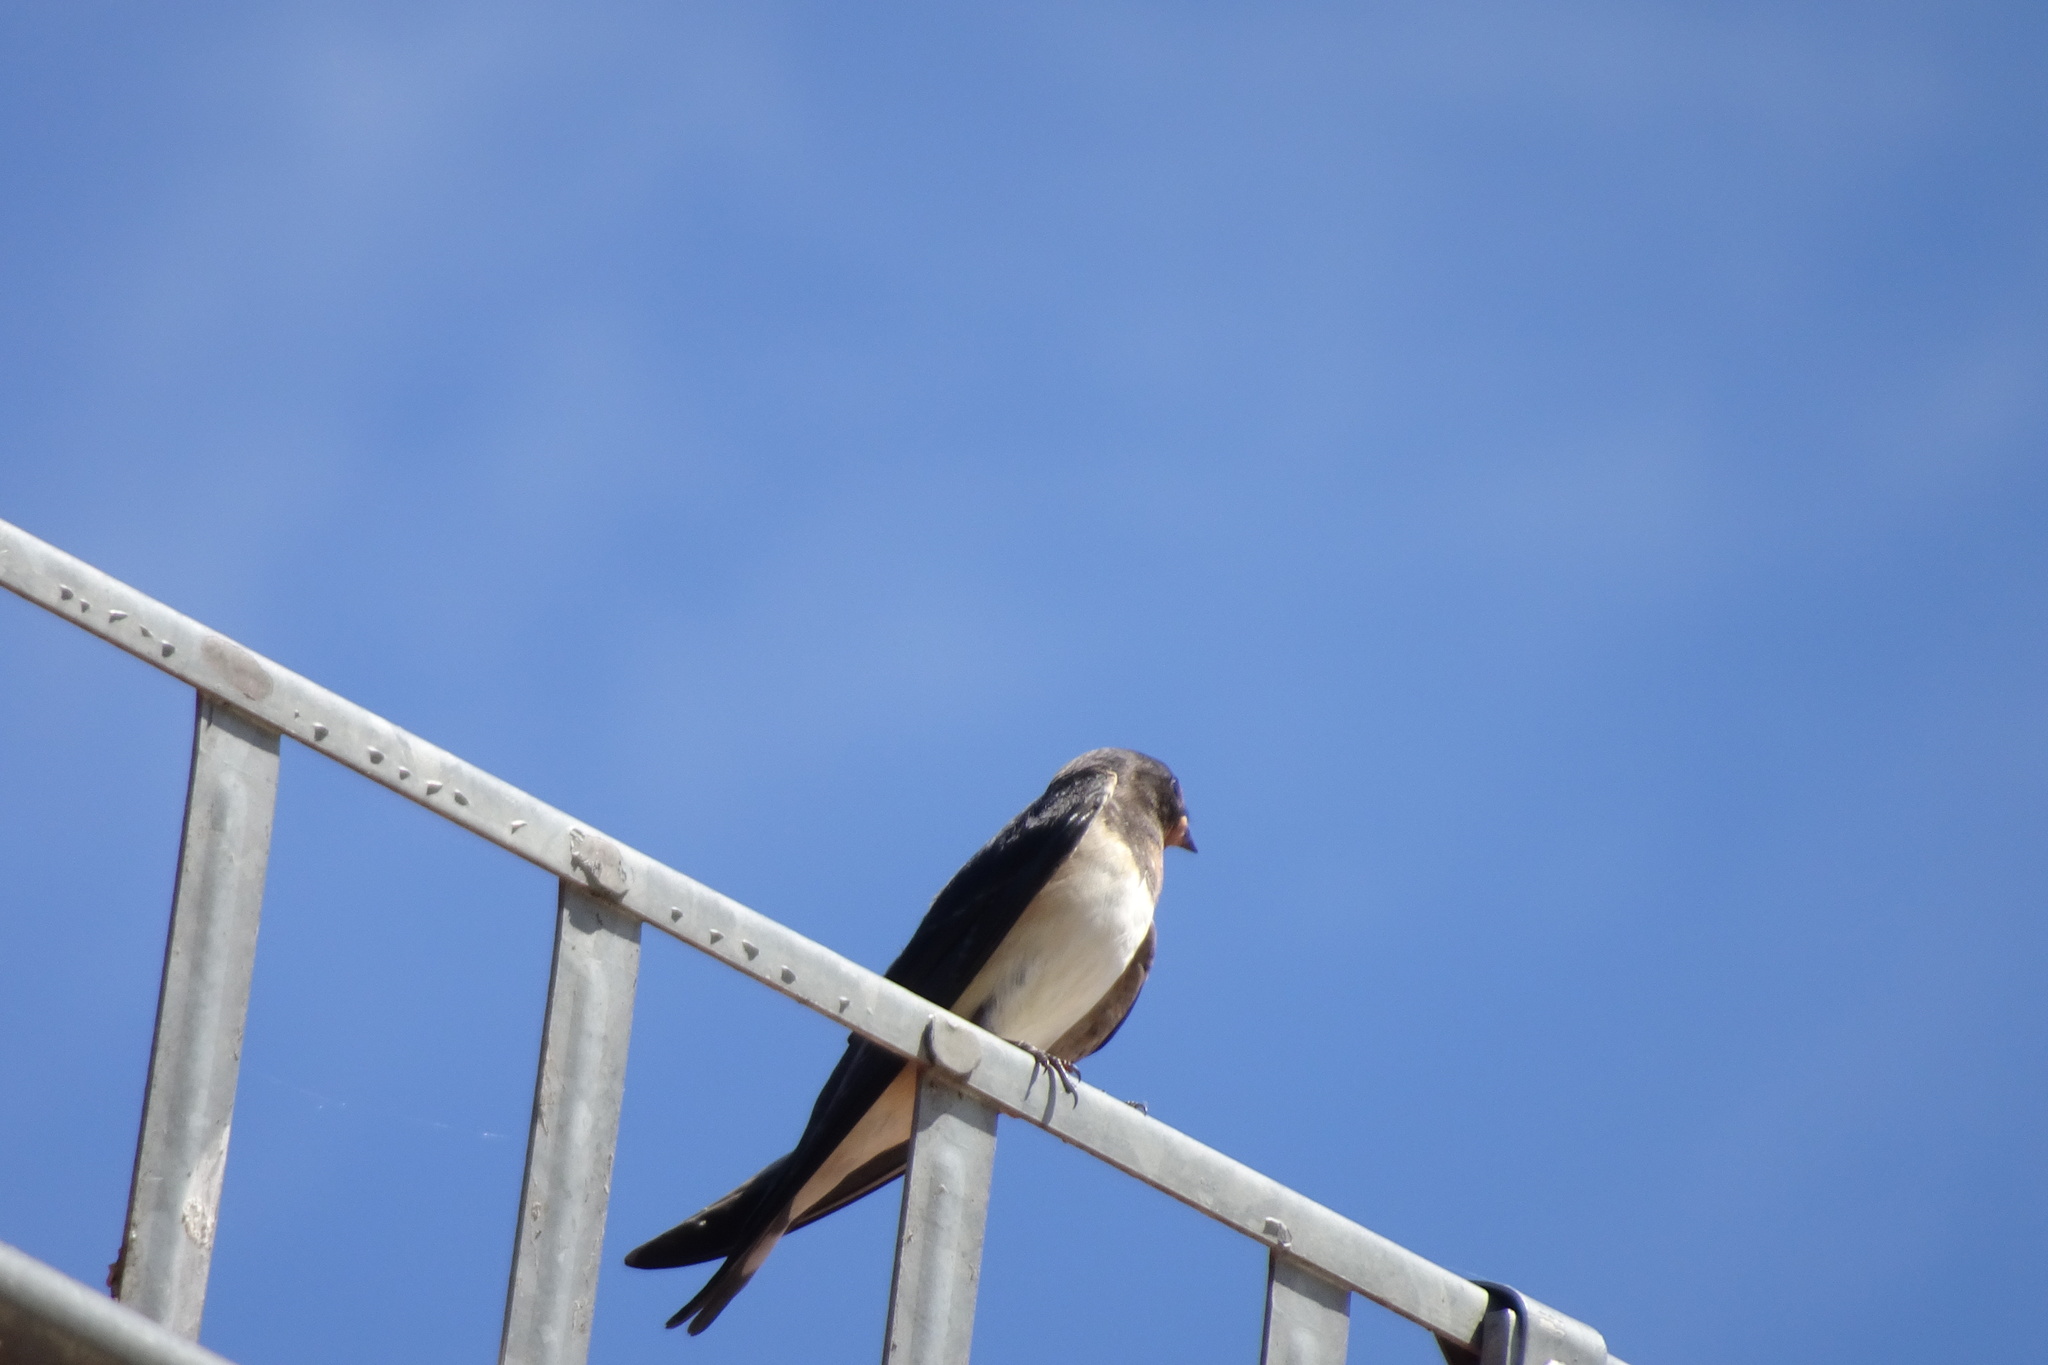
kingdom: Animalia
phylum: Chordata
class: Aves
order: Passeriformes
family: Hirundinidae
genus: Hirundo
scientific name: Hirundo rustica
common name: Barn swallow
